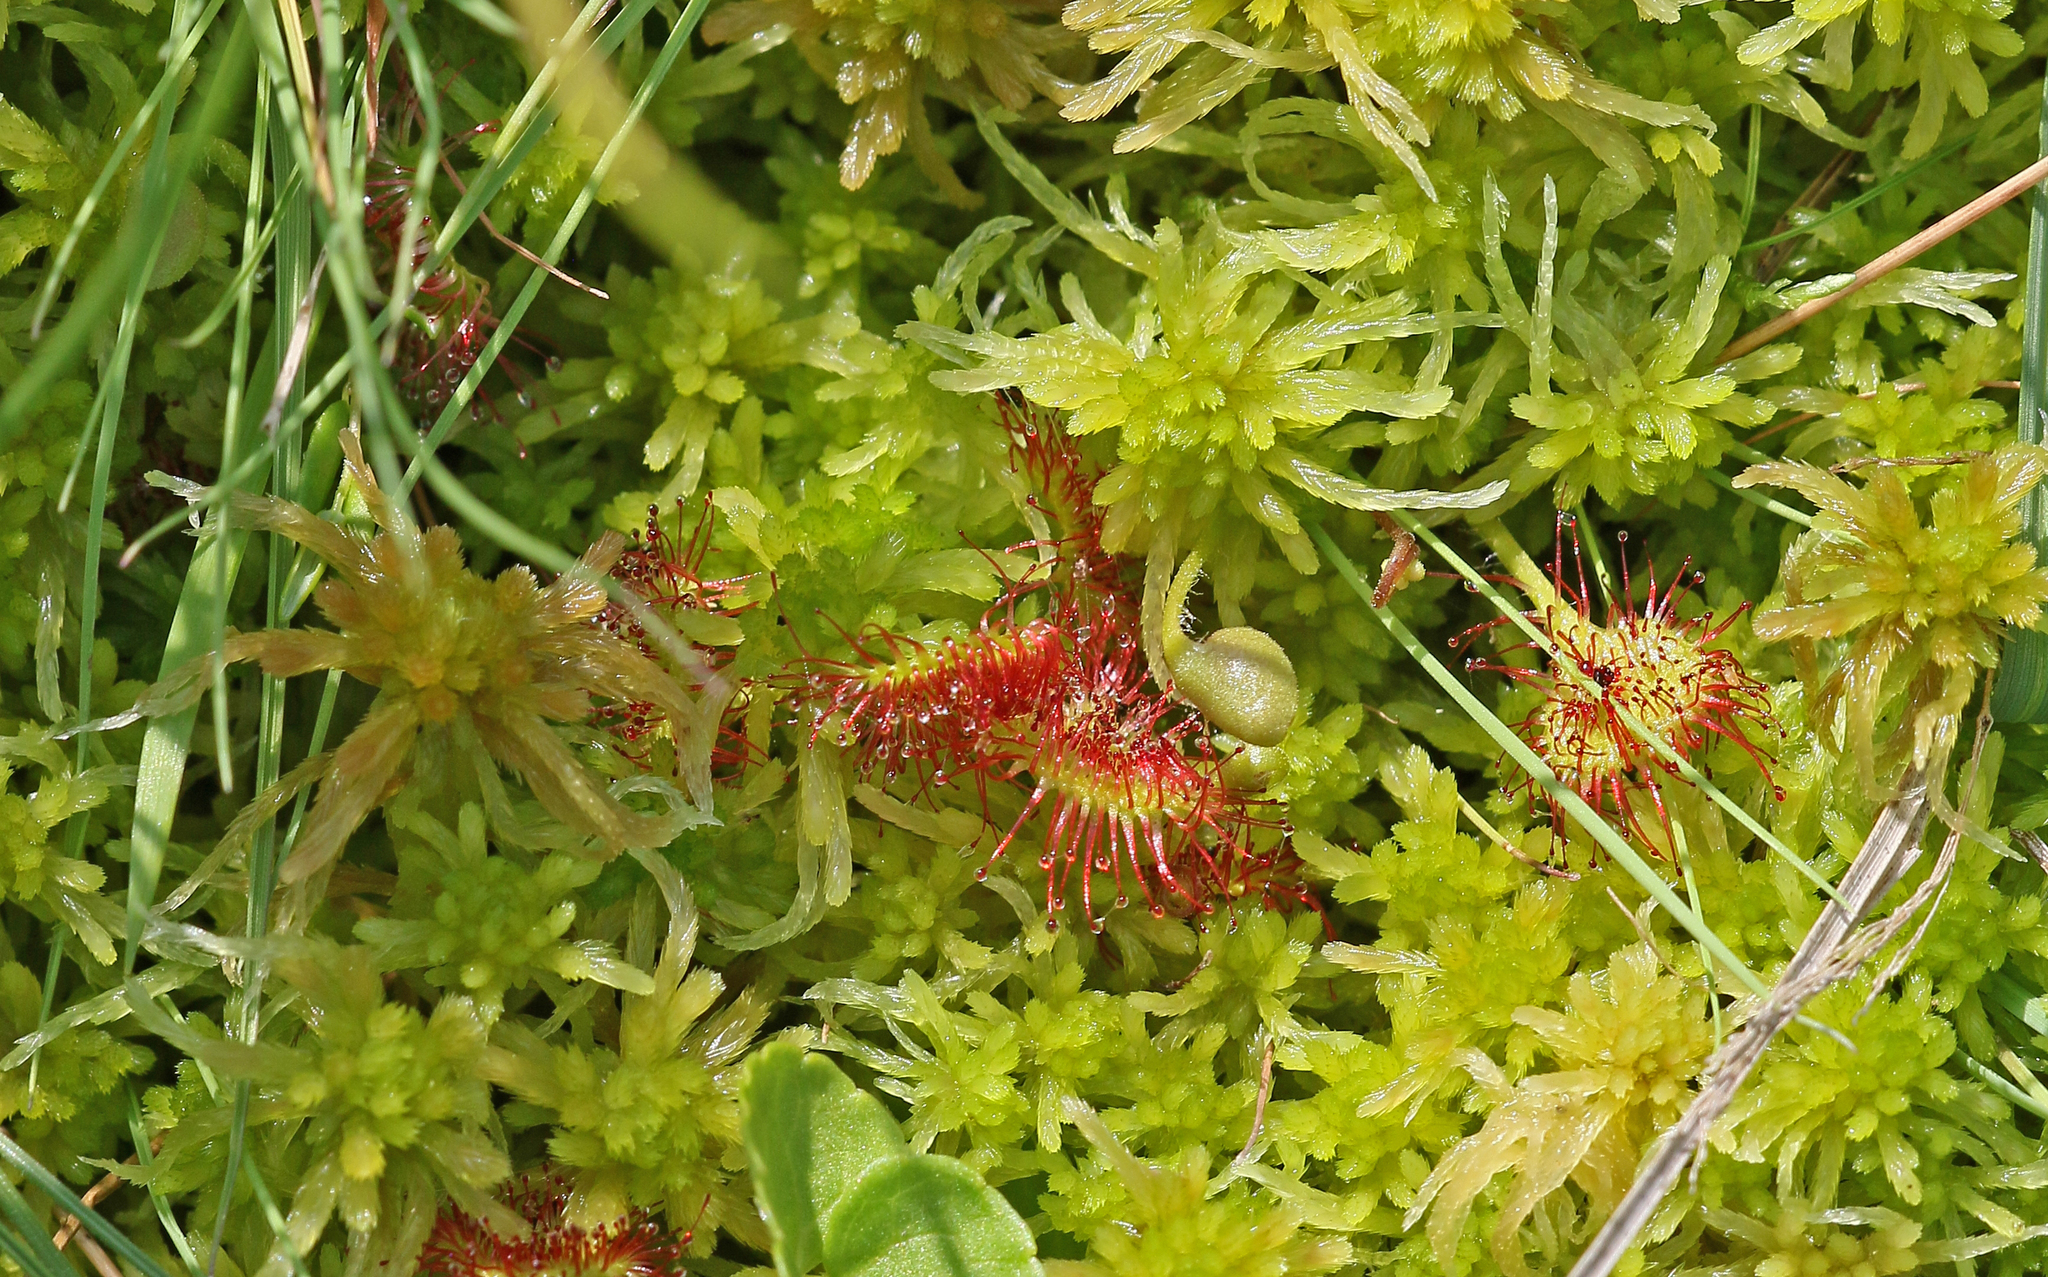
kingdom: Plantae
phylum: Tracheophyta
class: Magnoliopsida
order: Caryophyllales
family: Droseraceae
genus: Drosera
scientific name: Drosera rotundifolia
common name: Round-leaved sundew
